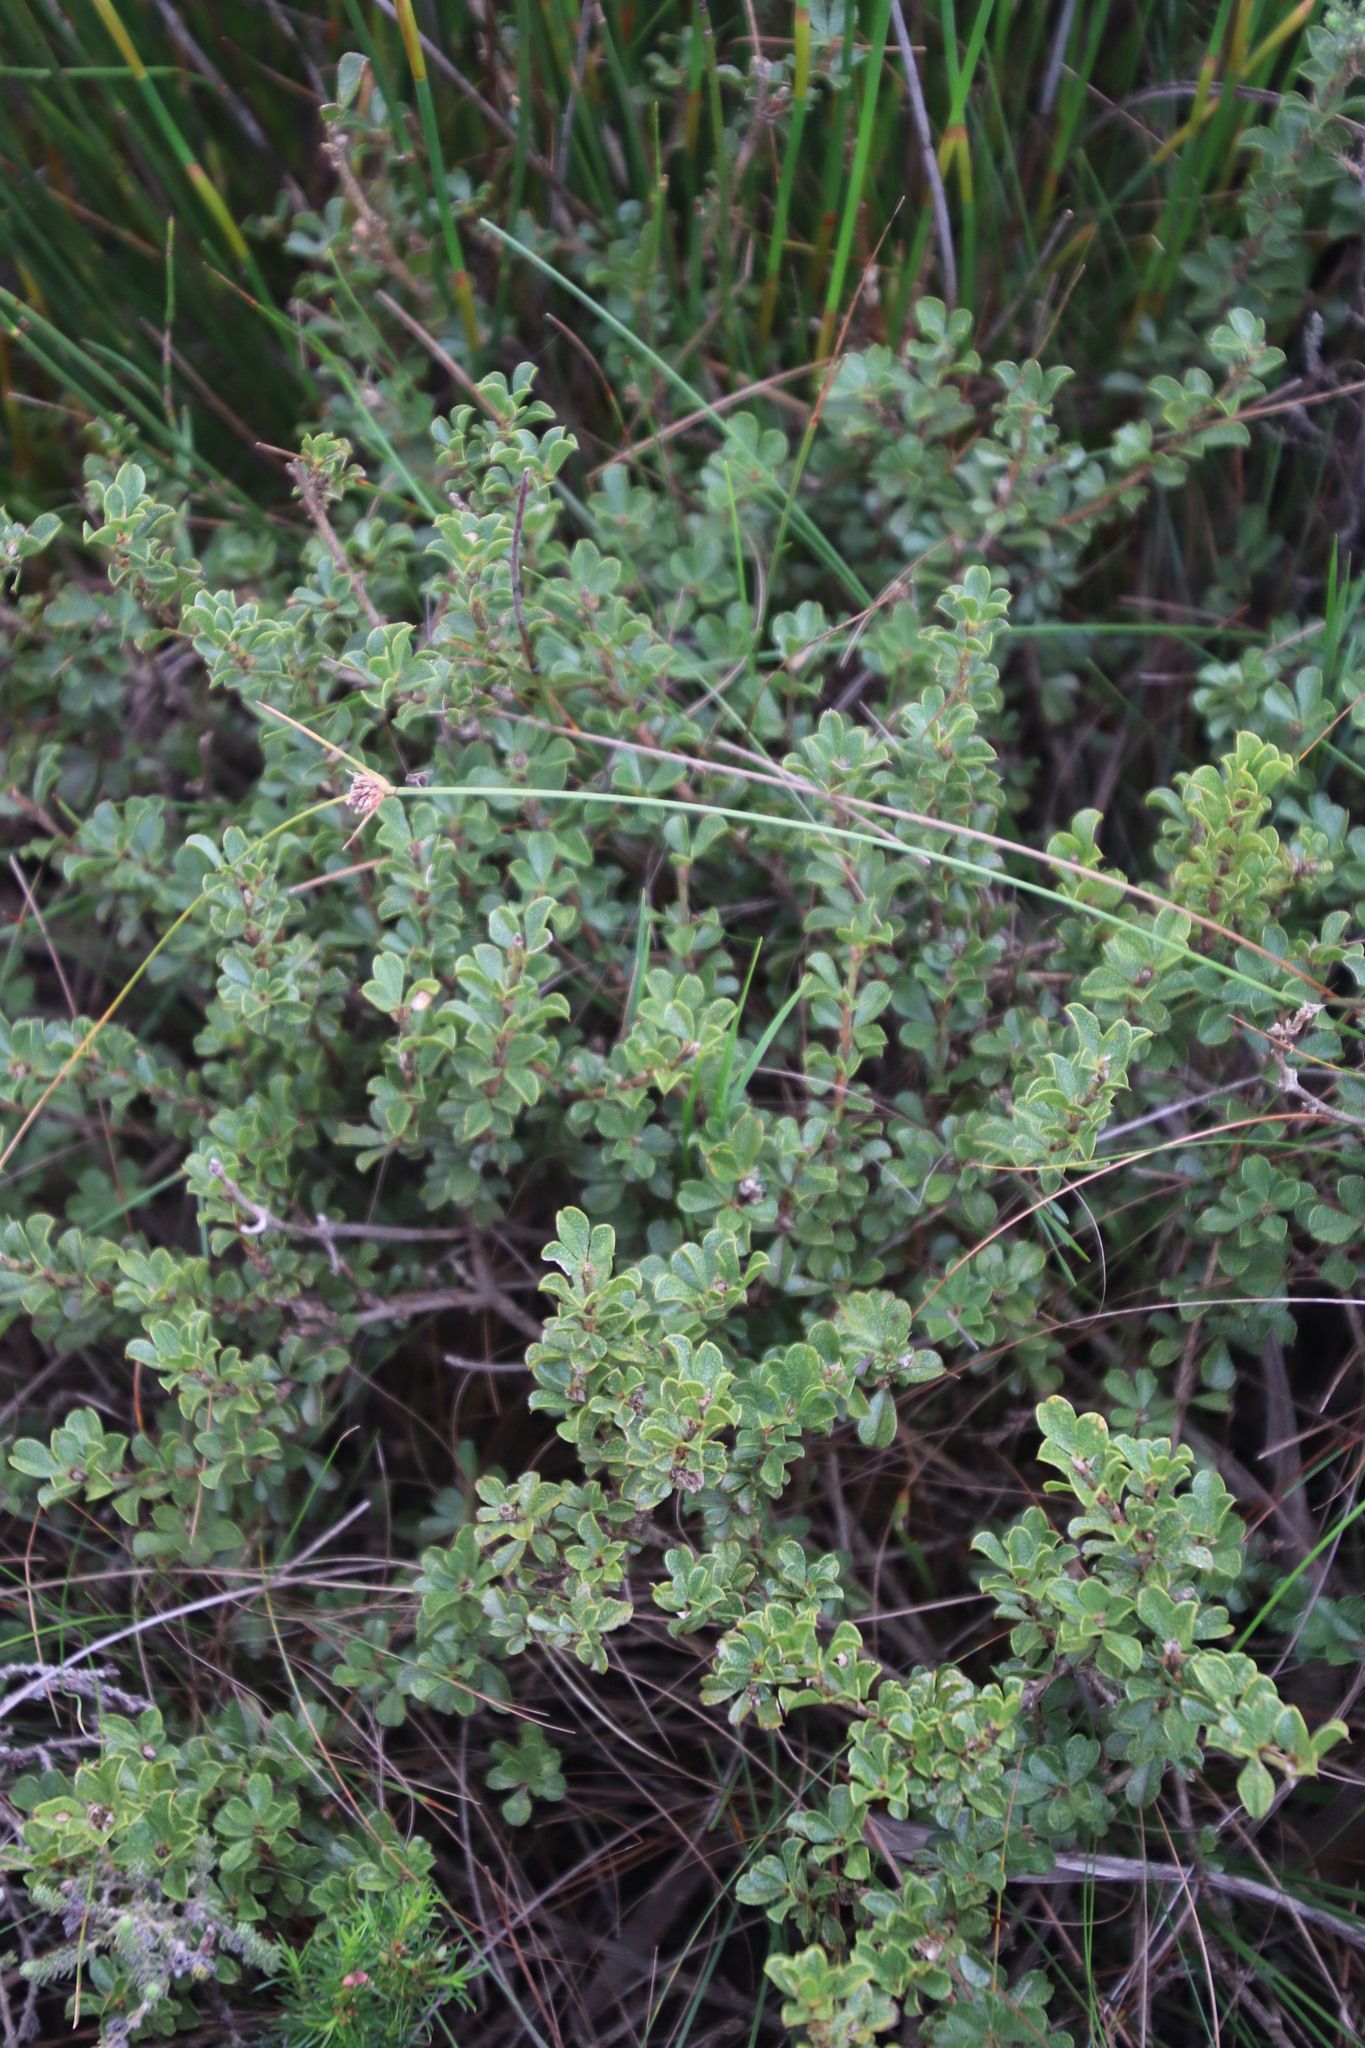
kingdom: Plantae
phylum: Tracheophyta
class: Magnoliopsida
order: Fabales
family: Fabaceae
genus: Psoralea
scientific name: Psoralea bracteolata
